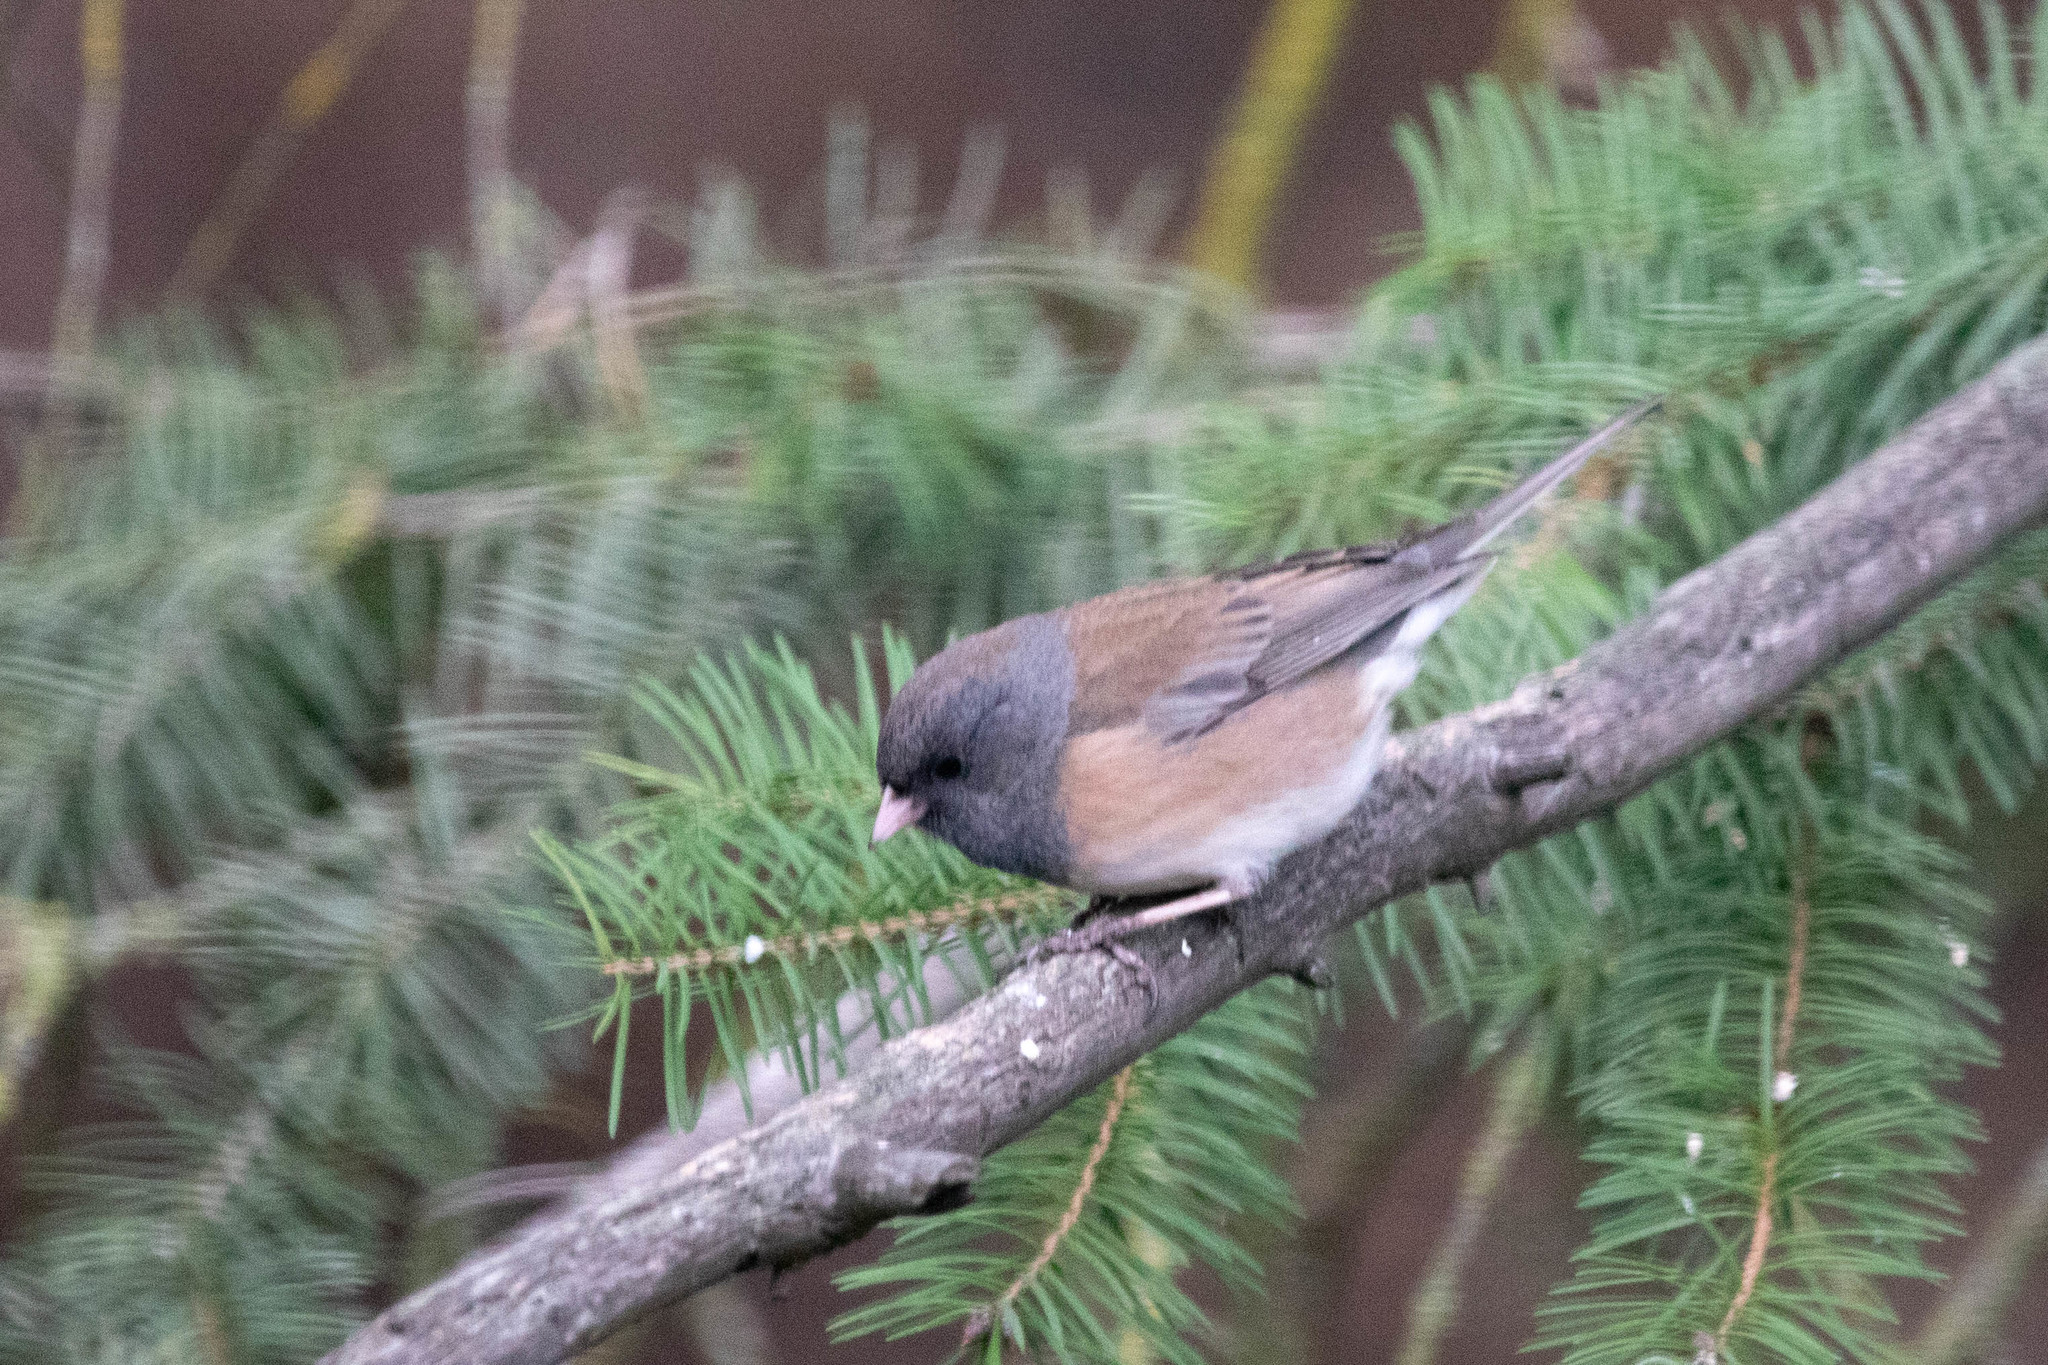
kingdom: Animalia
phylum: Chordata
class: Aves
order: Passeriformes
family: Passerellidae
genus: Junco
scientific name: Junco hyemalis
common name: Dark-eyed junco
